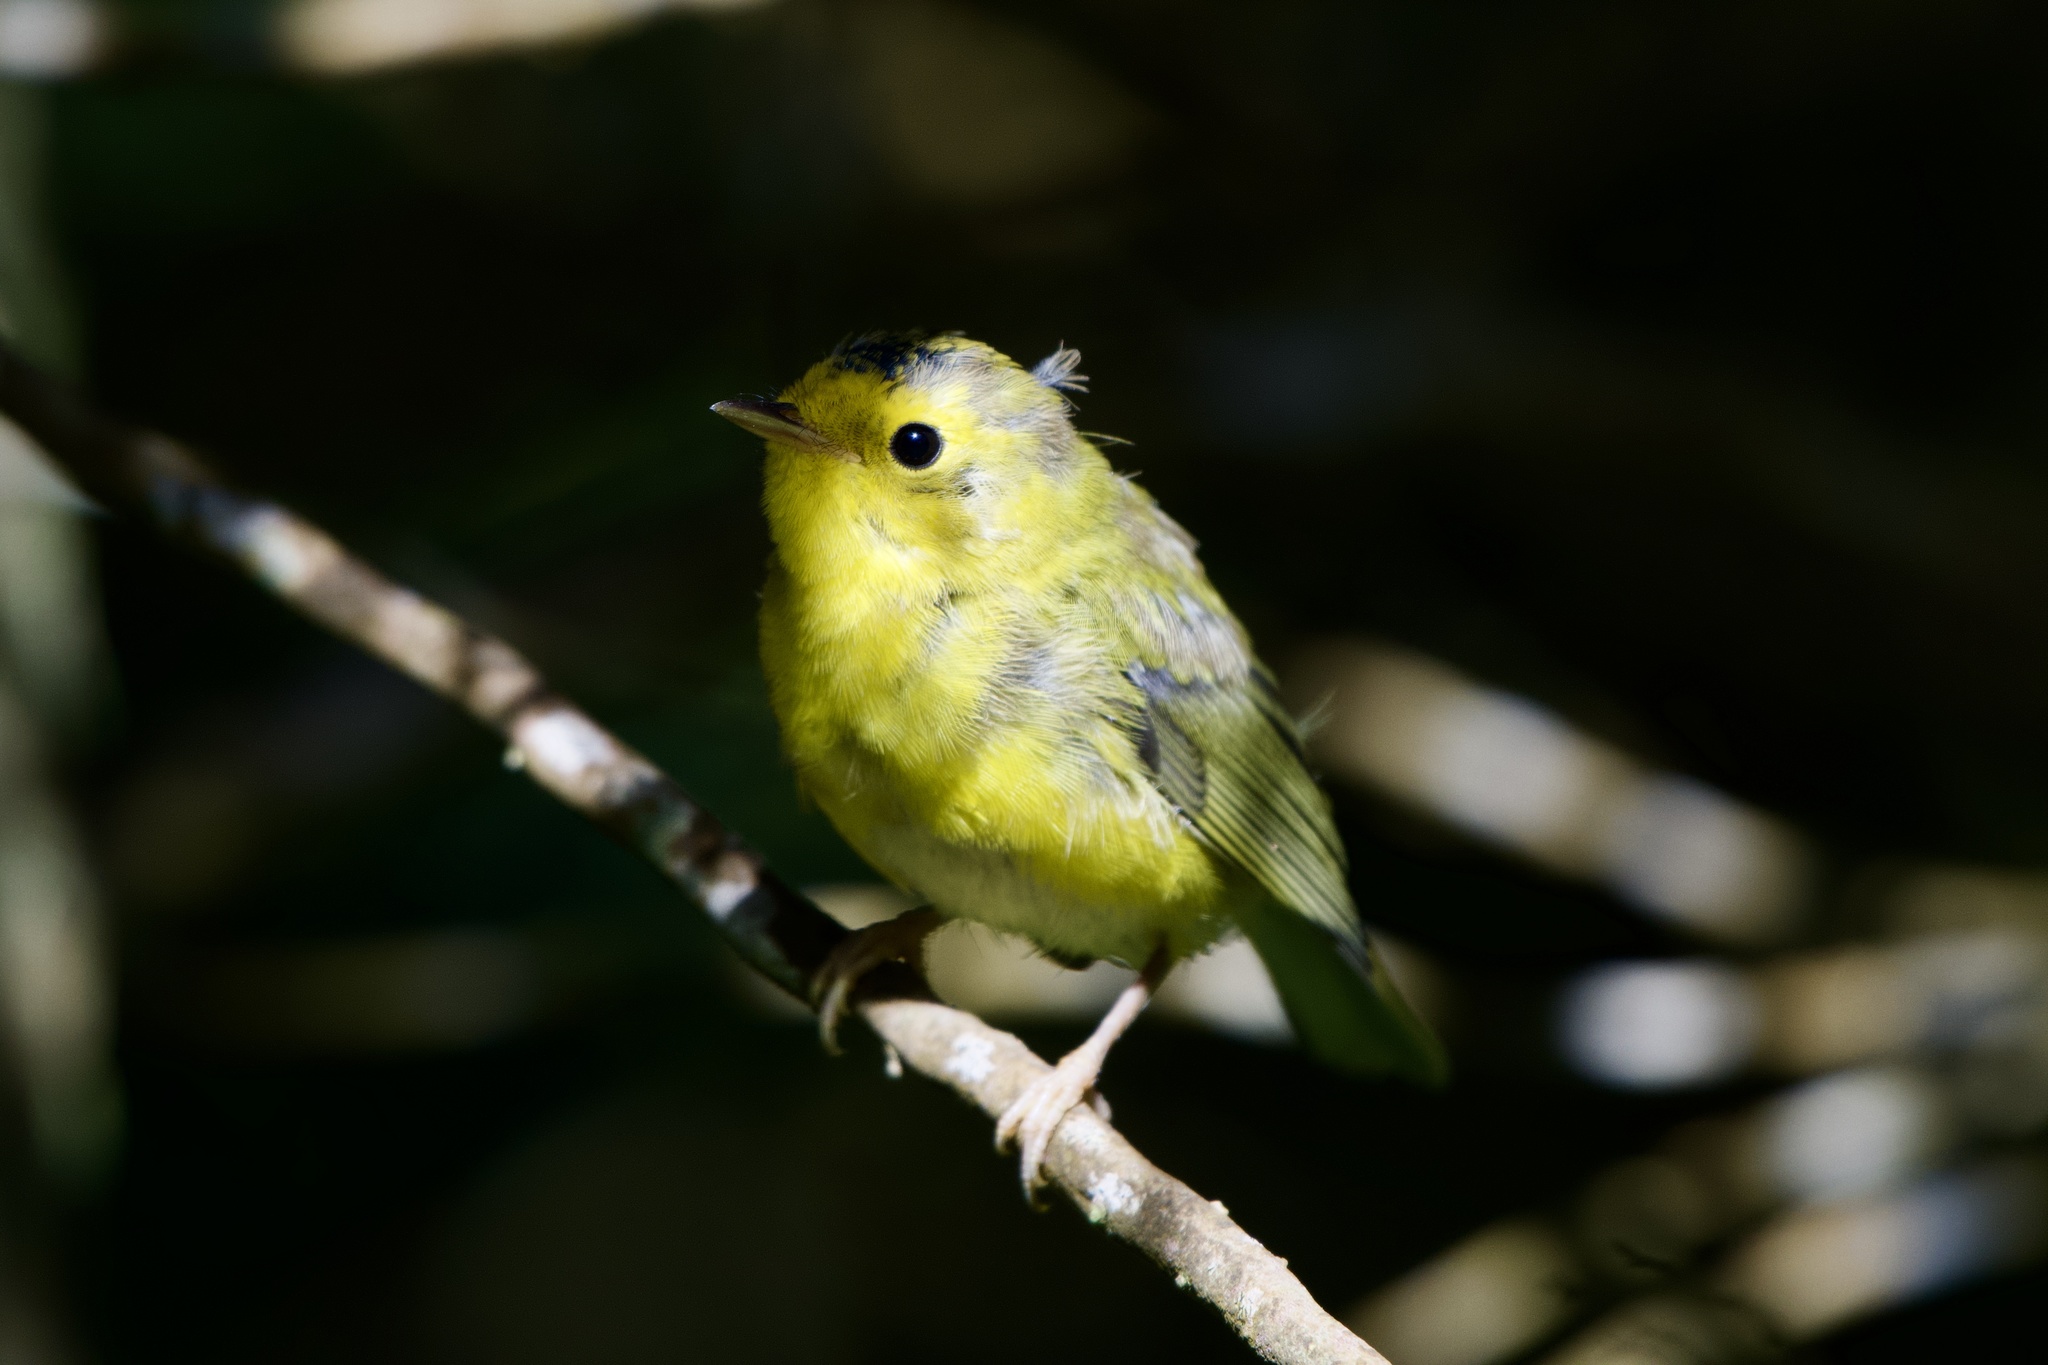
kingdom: Animalia
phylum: Chordata
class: Aves
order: Passeriformes
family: Parulidae
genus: Cardellina
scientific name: Cardellina pusilla
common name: Wilson's warbler
